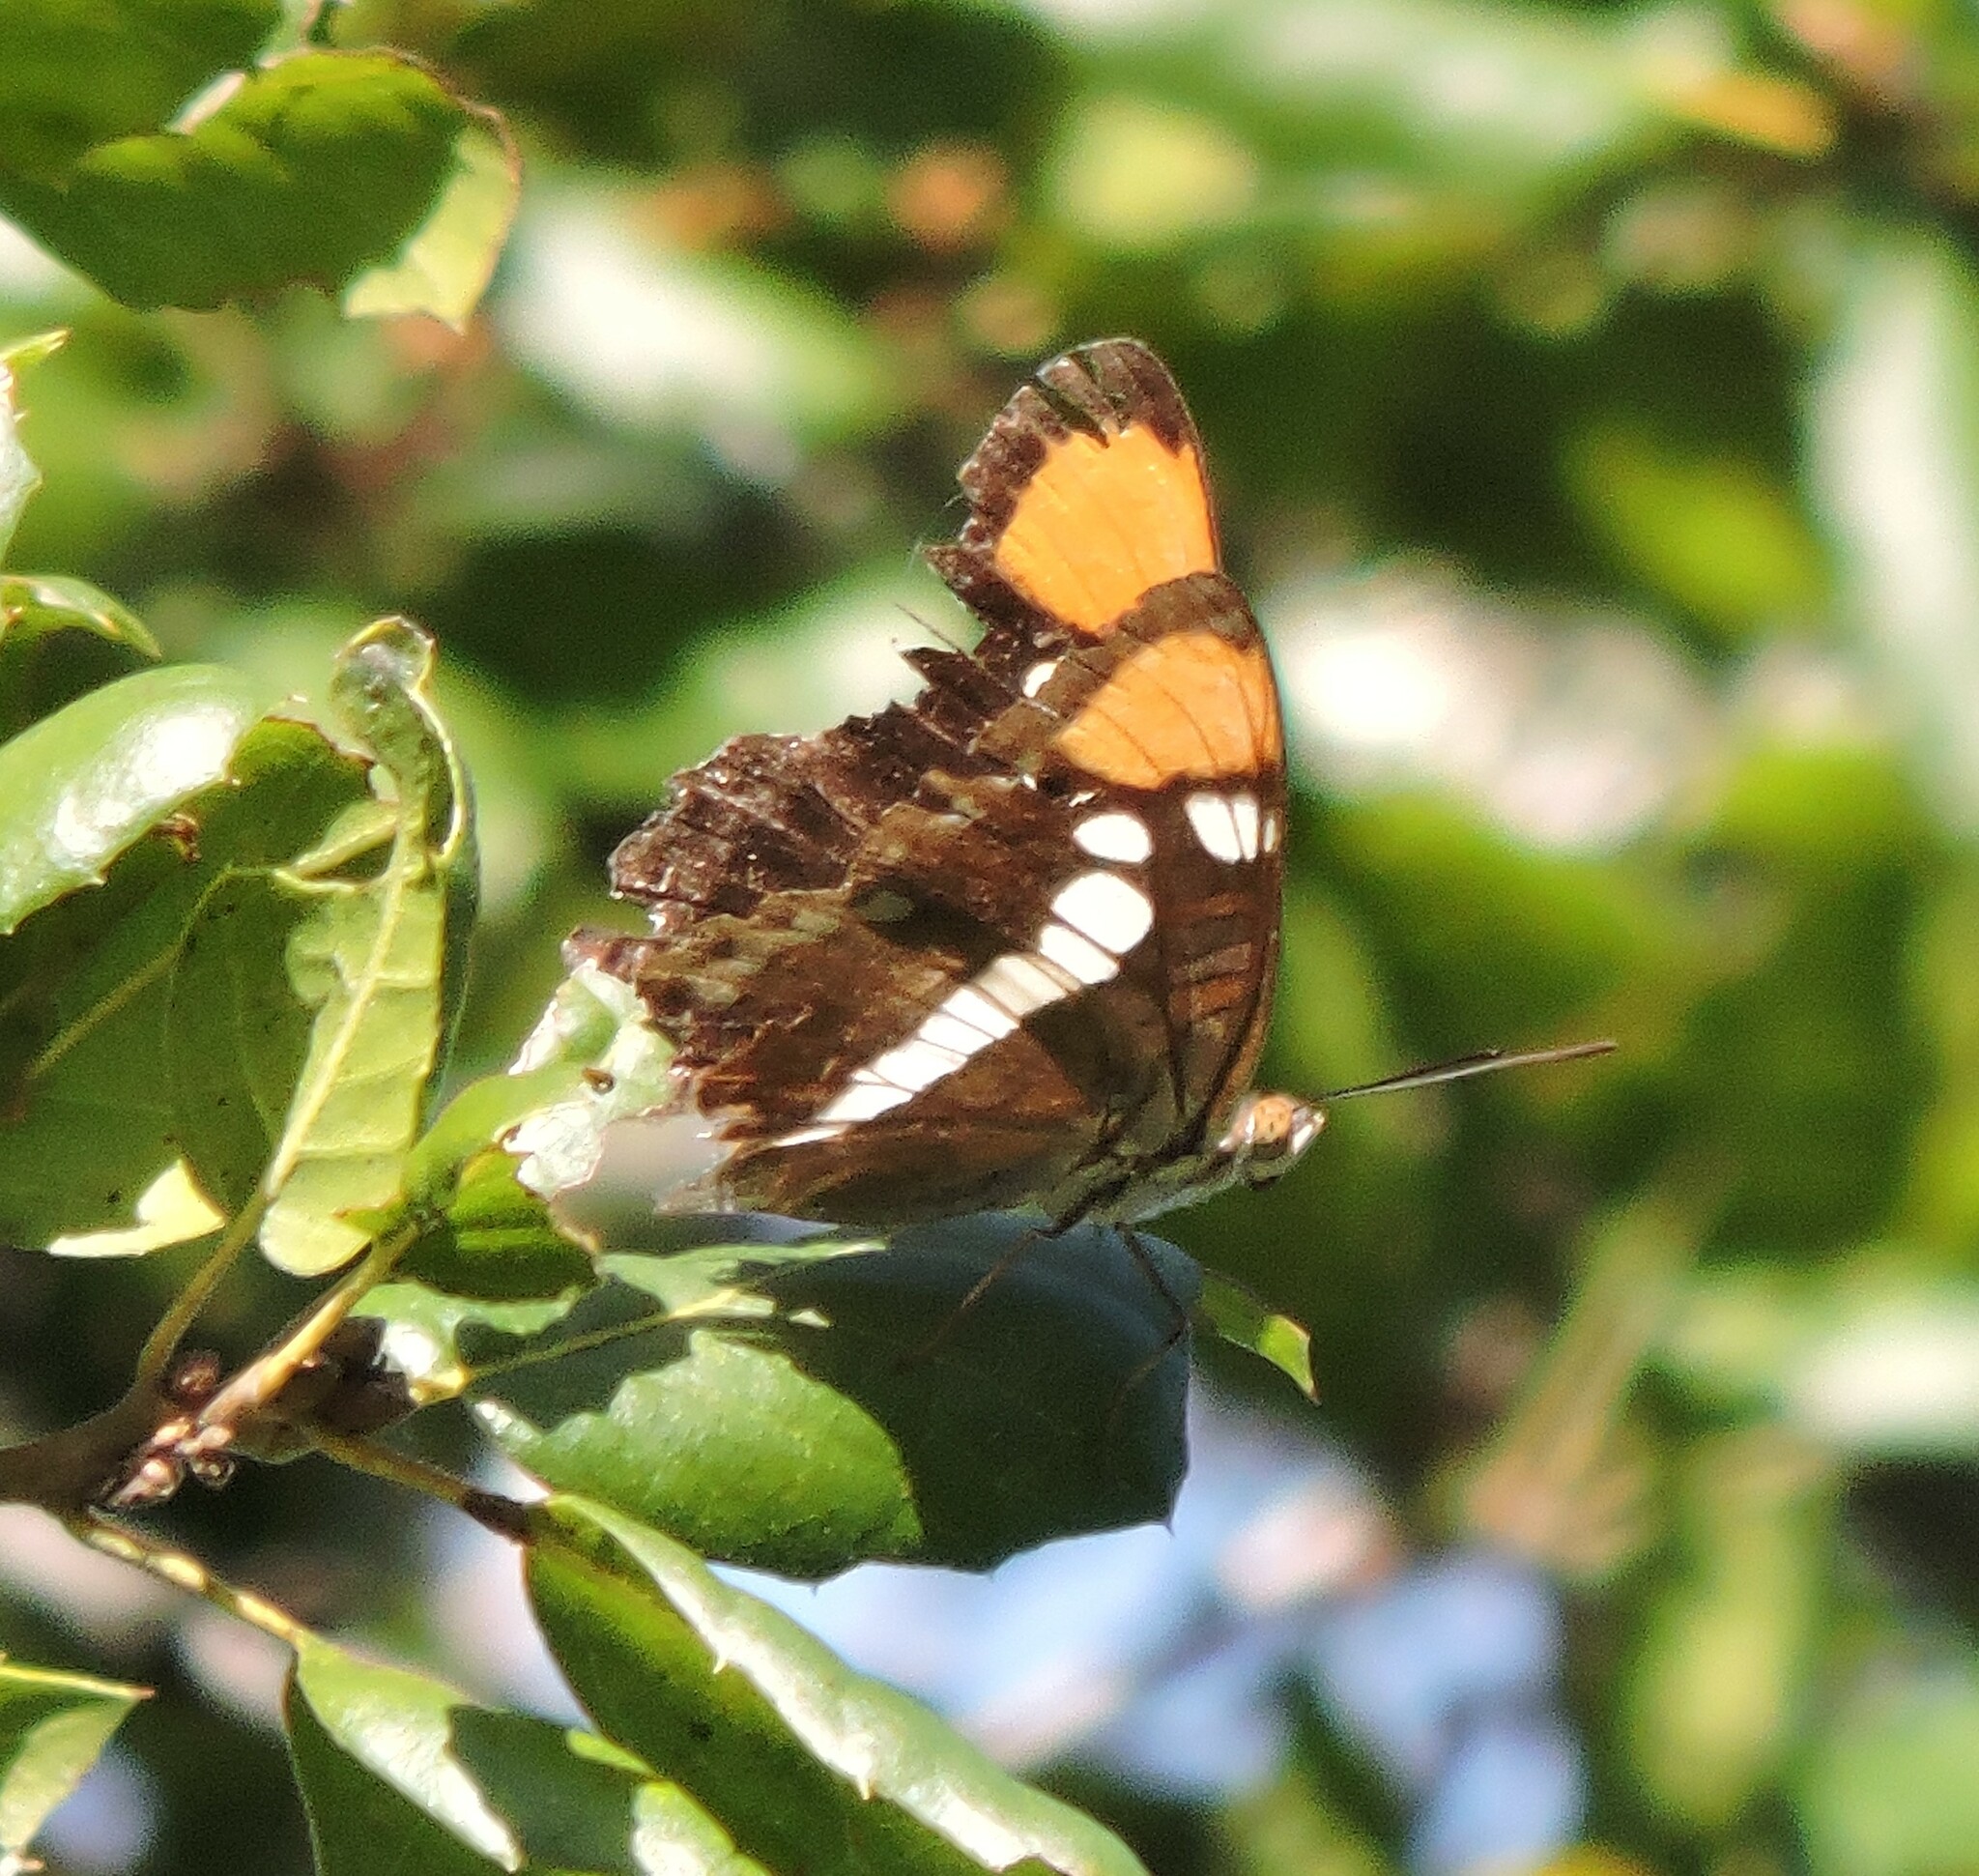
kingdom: Animalia
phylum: Arthropoda
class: Insecta
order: Lepidoptera
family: Nymphalidae
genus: Limenitis
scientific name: Limenitis bredowii
